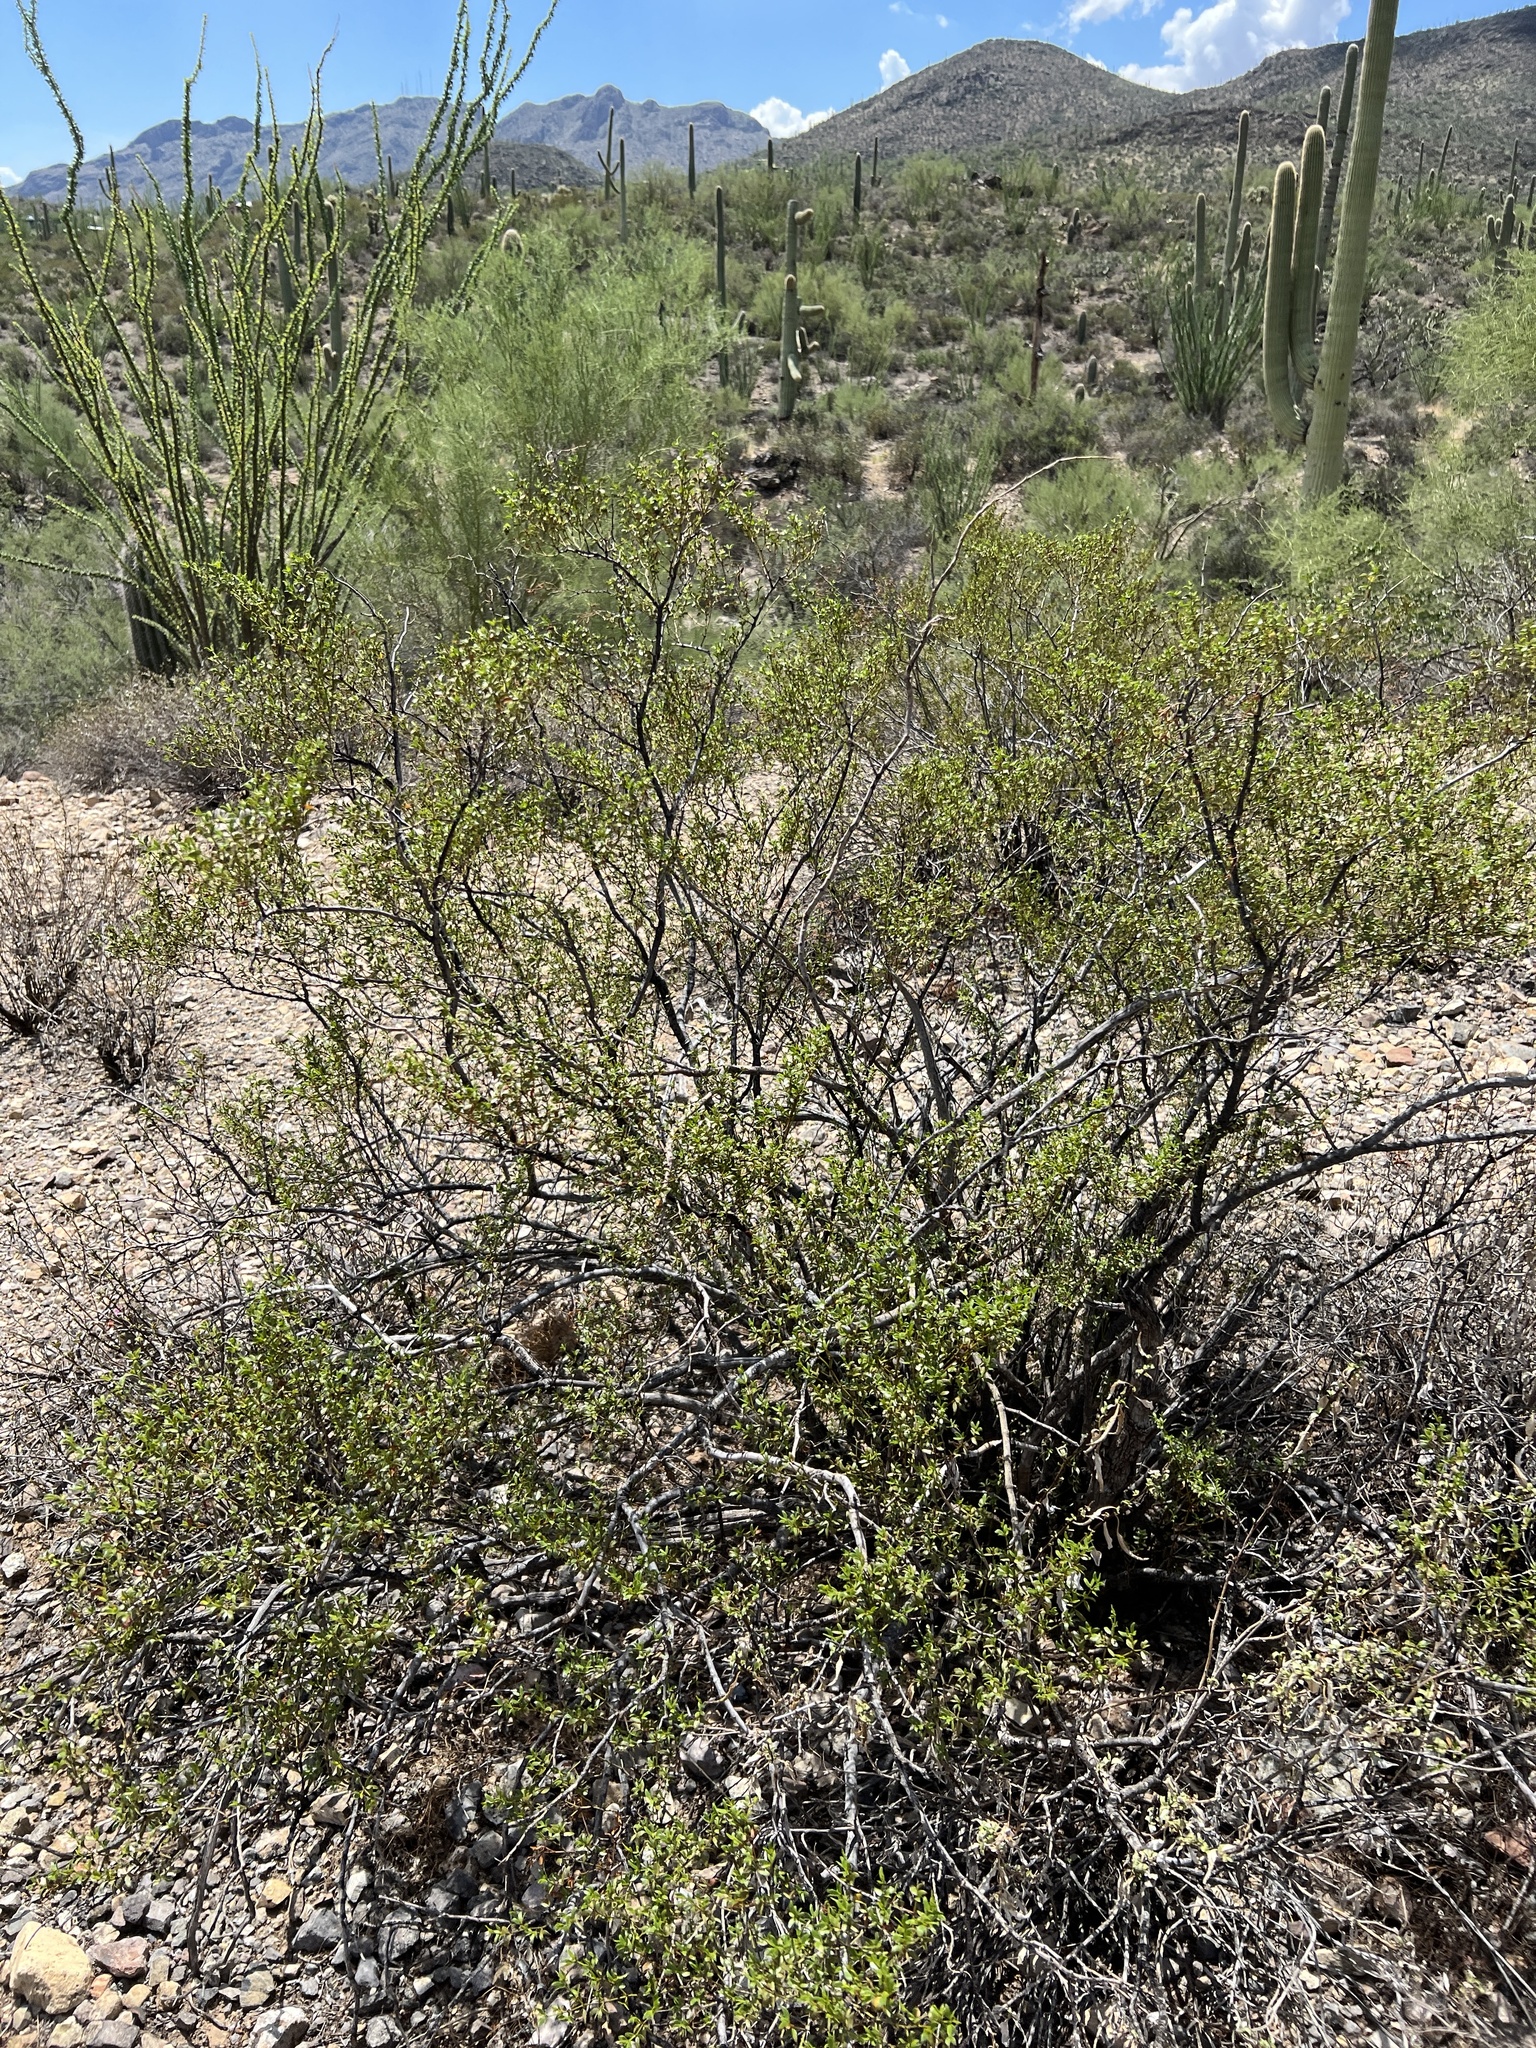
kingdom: Plantae
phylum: Tracheophyta
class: Magnoliopsida
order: Zygophyllales
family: Zygophyllaceae
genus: Larrea
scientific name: Larrea tridentata
